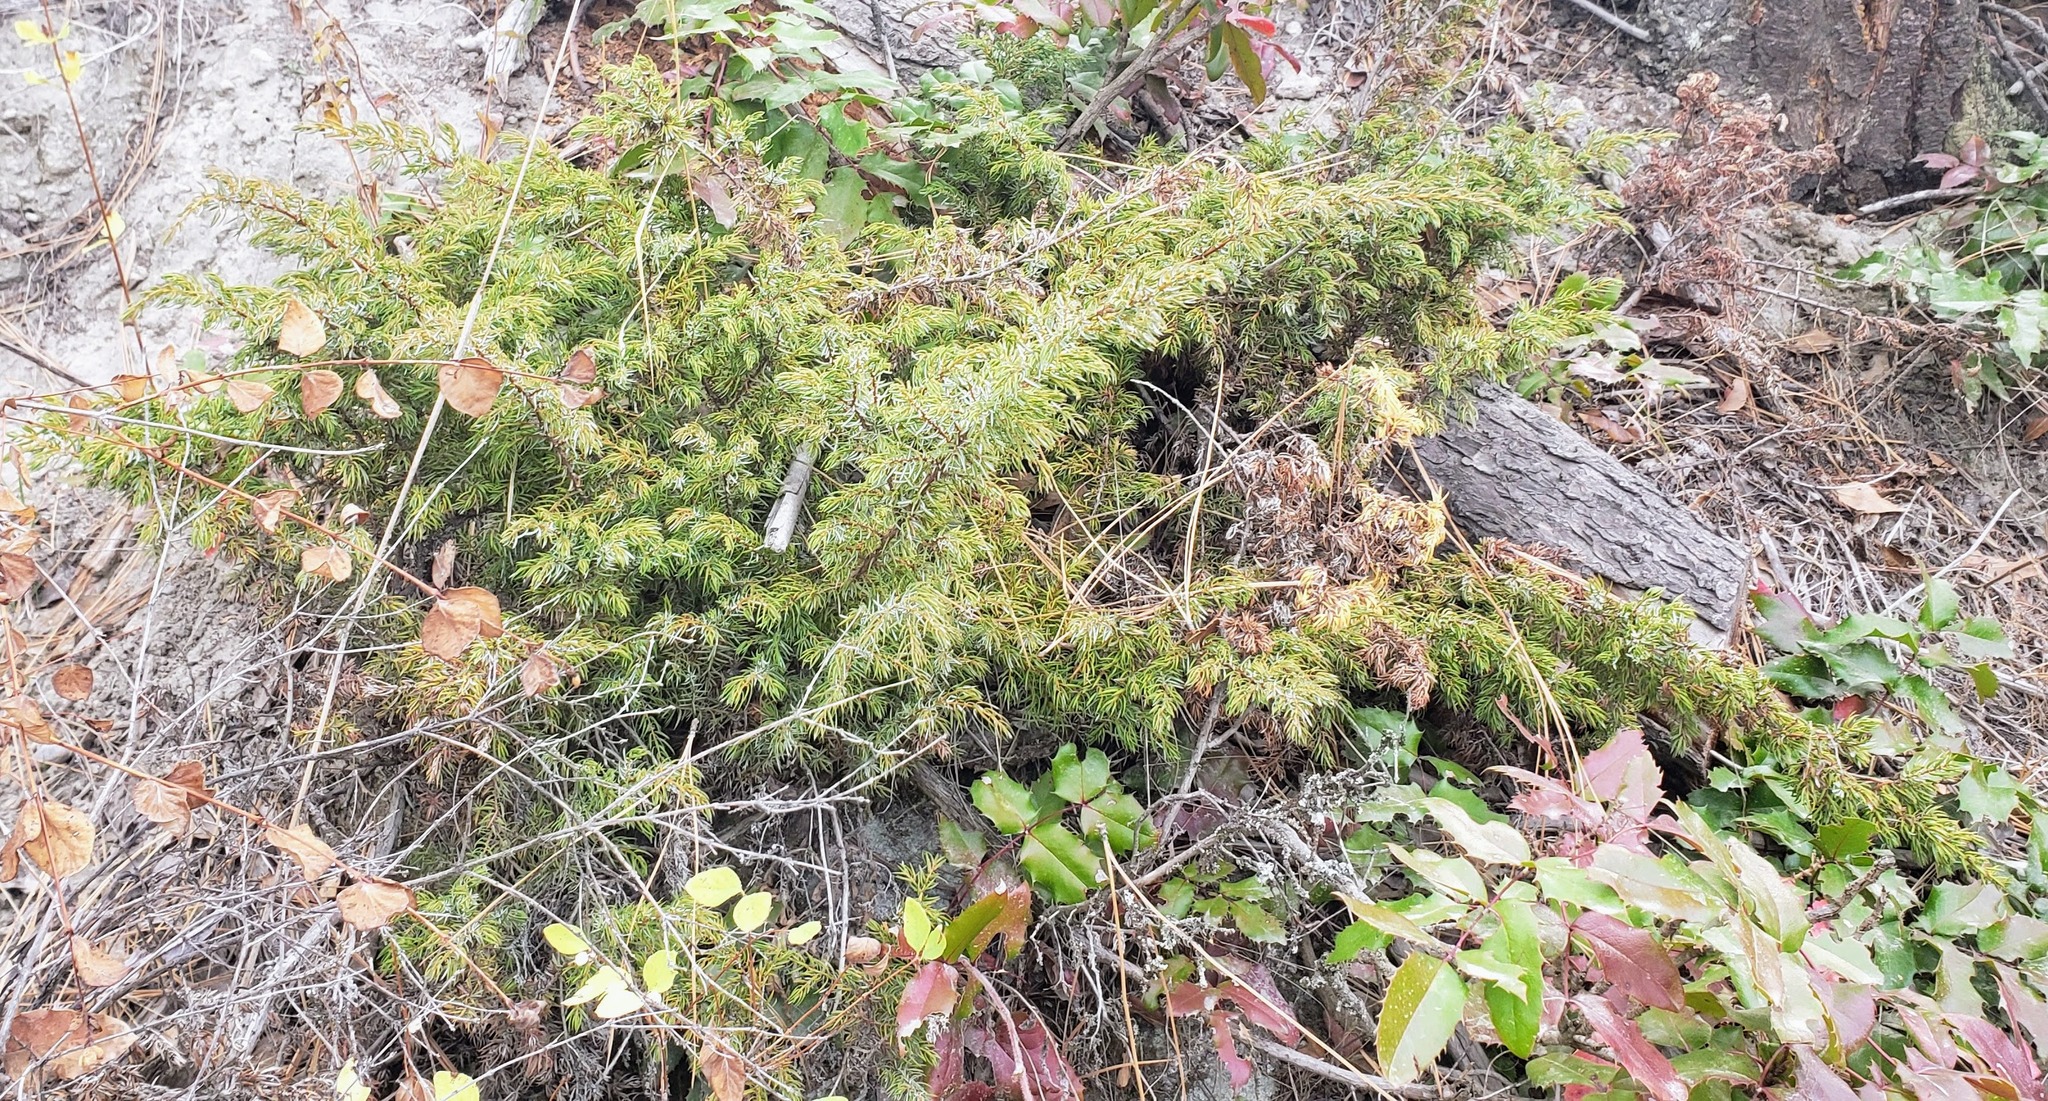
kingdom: Plantae
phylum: Tracheophyta
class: Pinopsida
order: Pinales
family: Cupressaceae
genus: Juniperus
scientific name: Juniperus communis
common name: Common juniper
